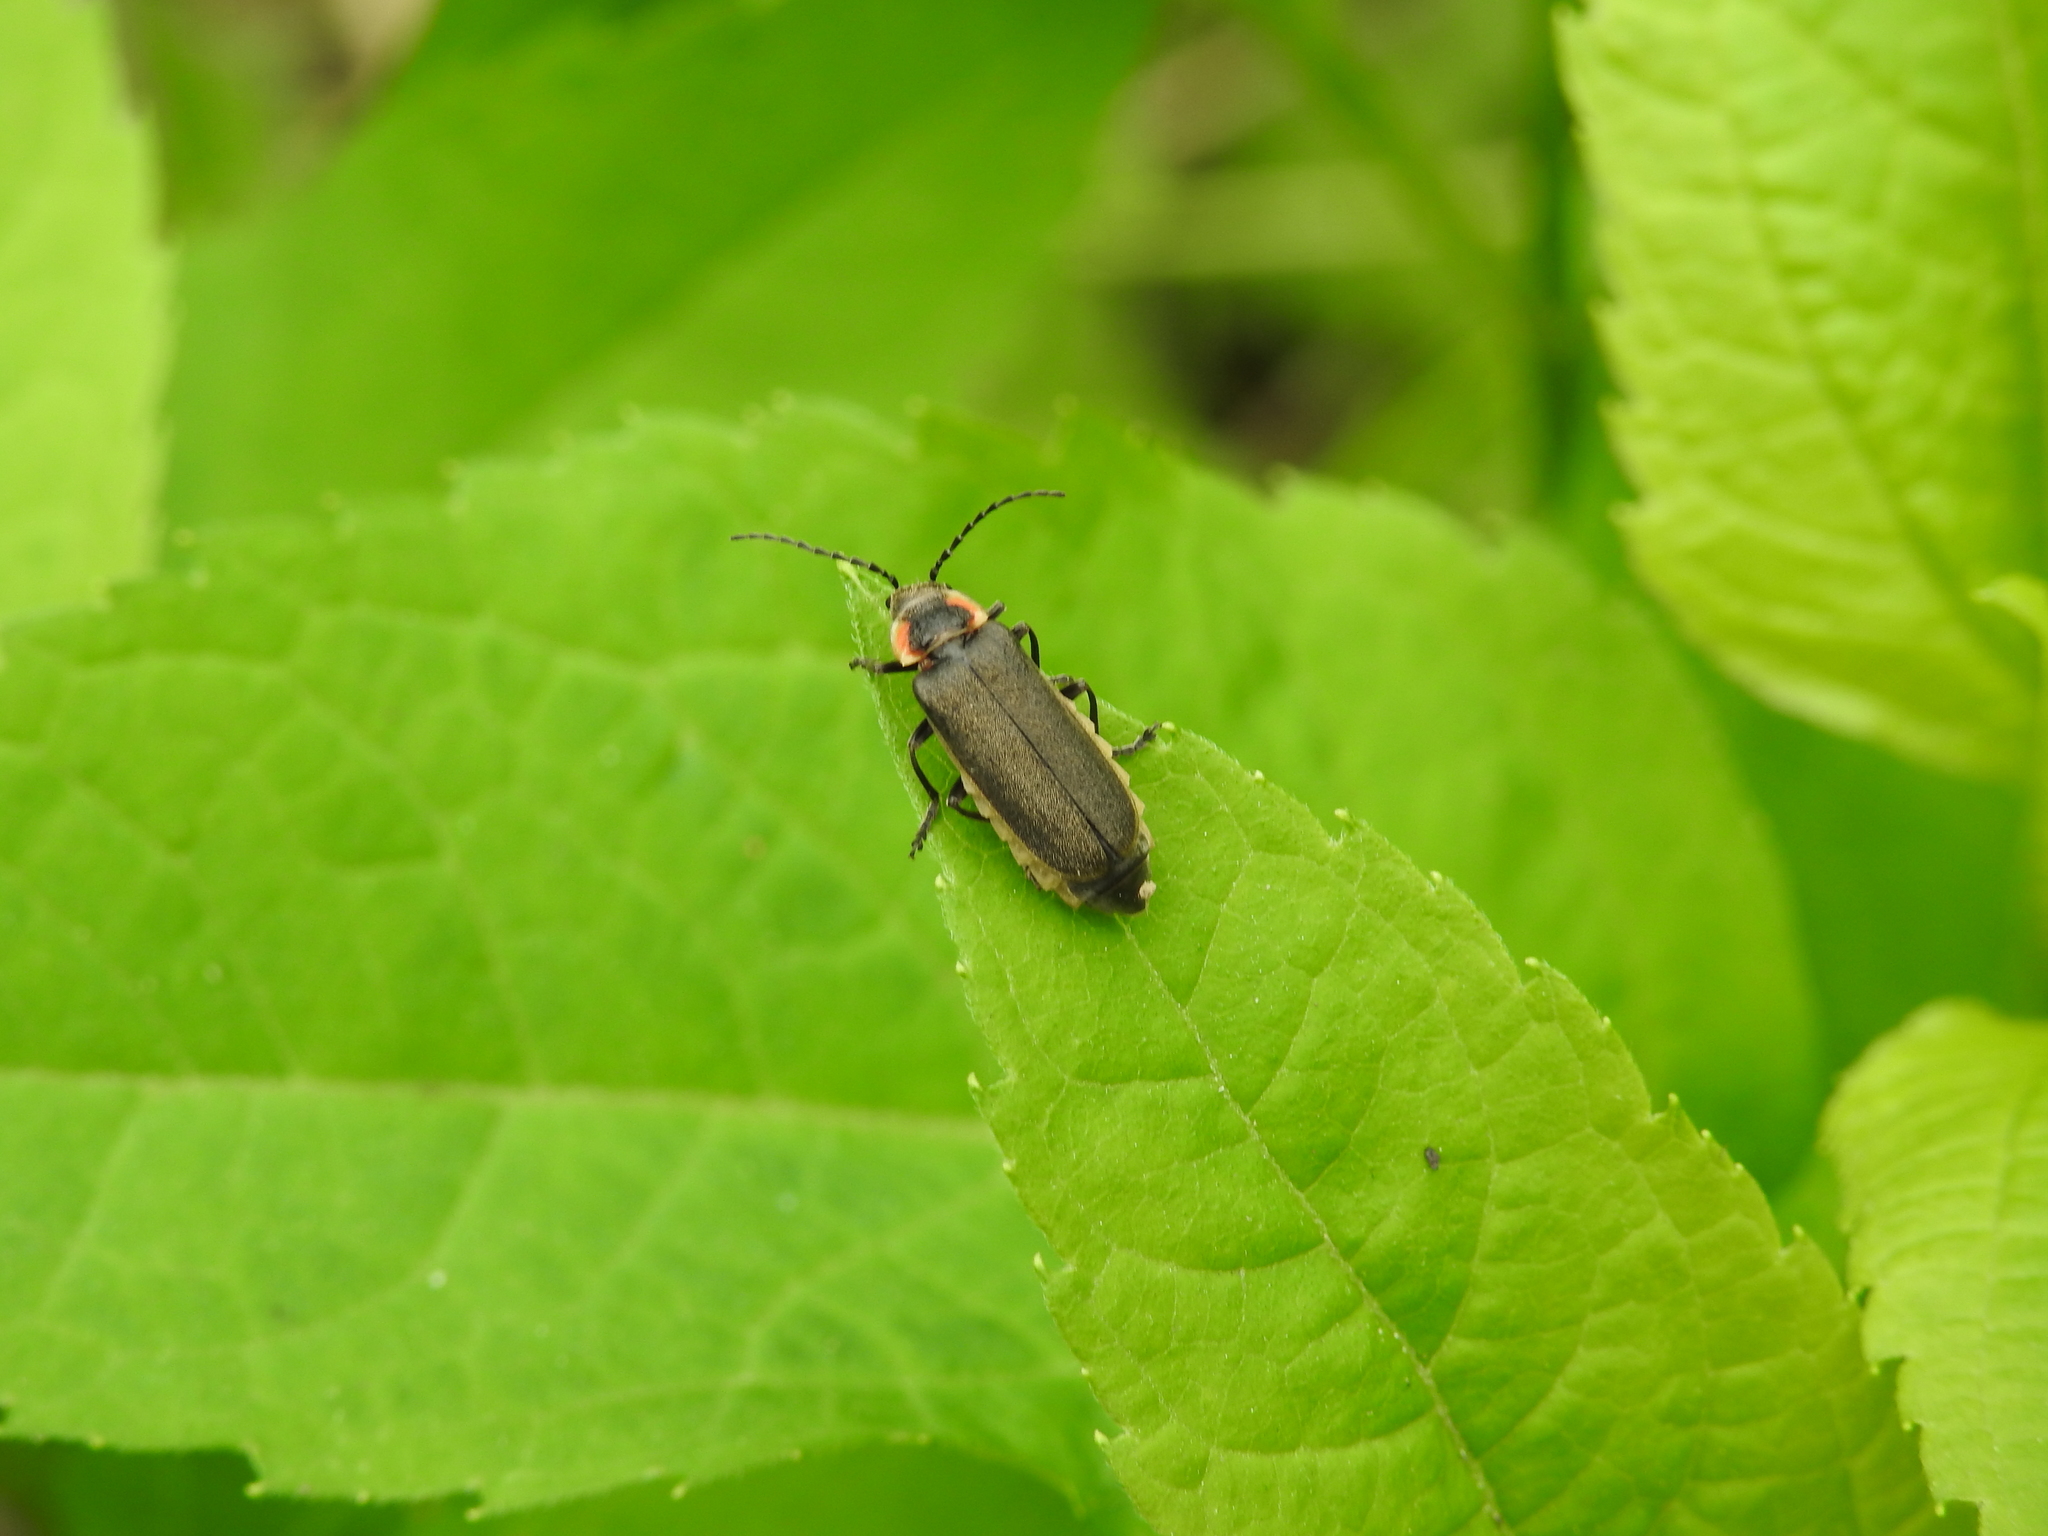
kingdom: Animalia
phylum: Arthropoda
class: Insecta
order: Coleoptera
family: Cantharidae
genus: Atalantycha
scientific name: Atalantycha dentigera
